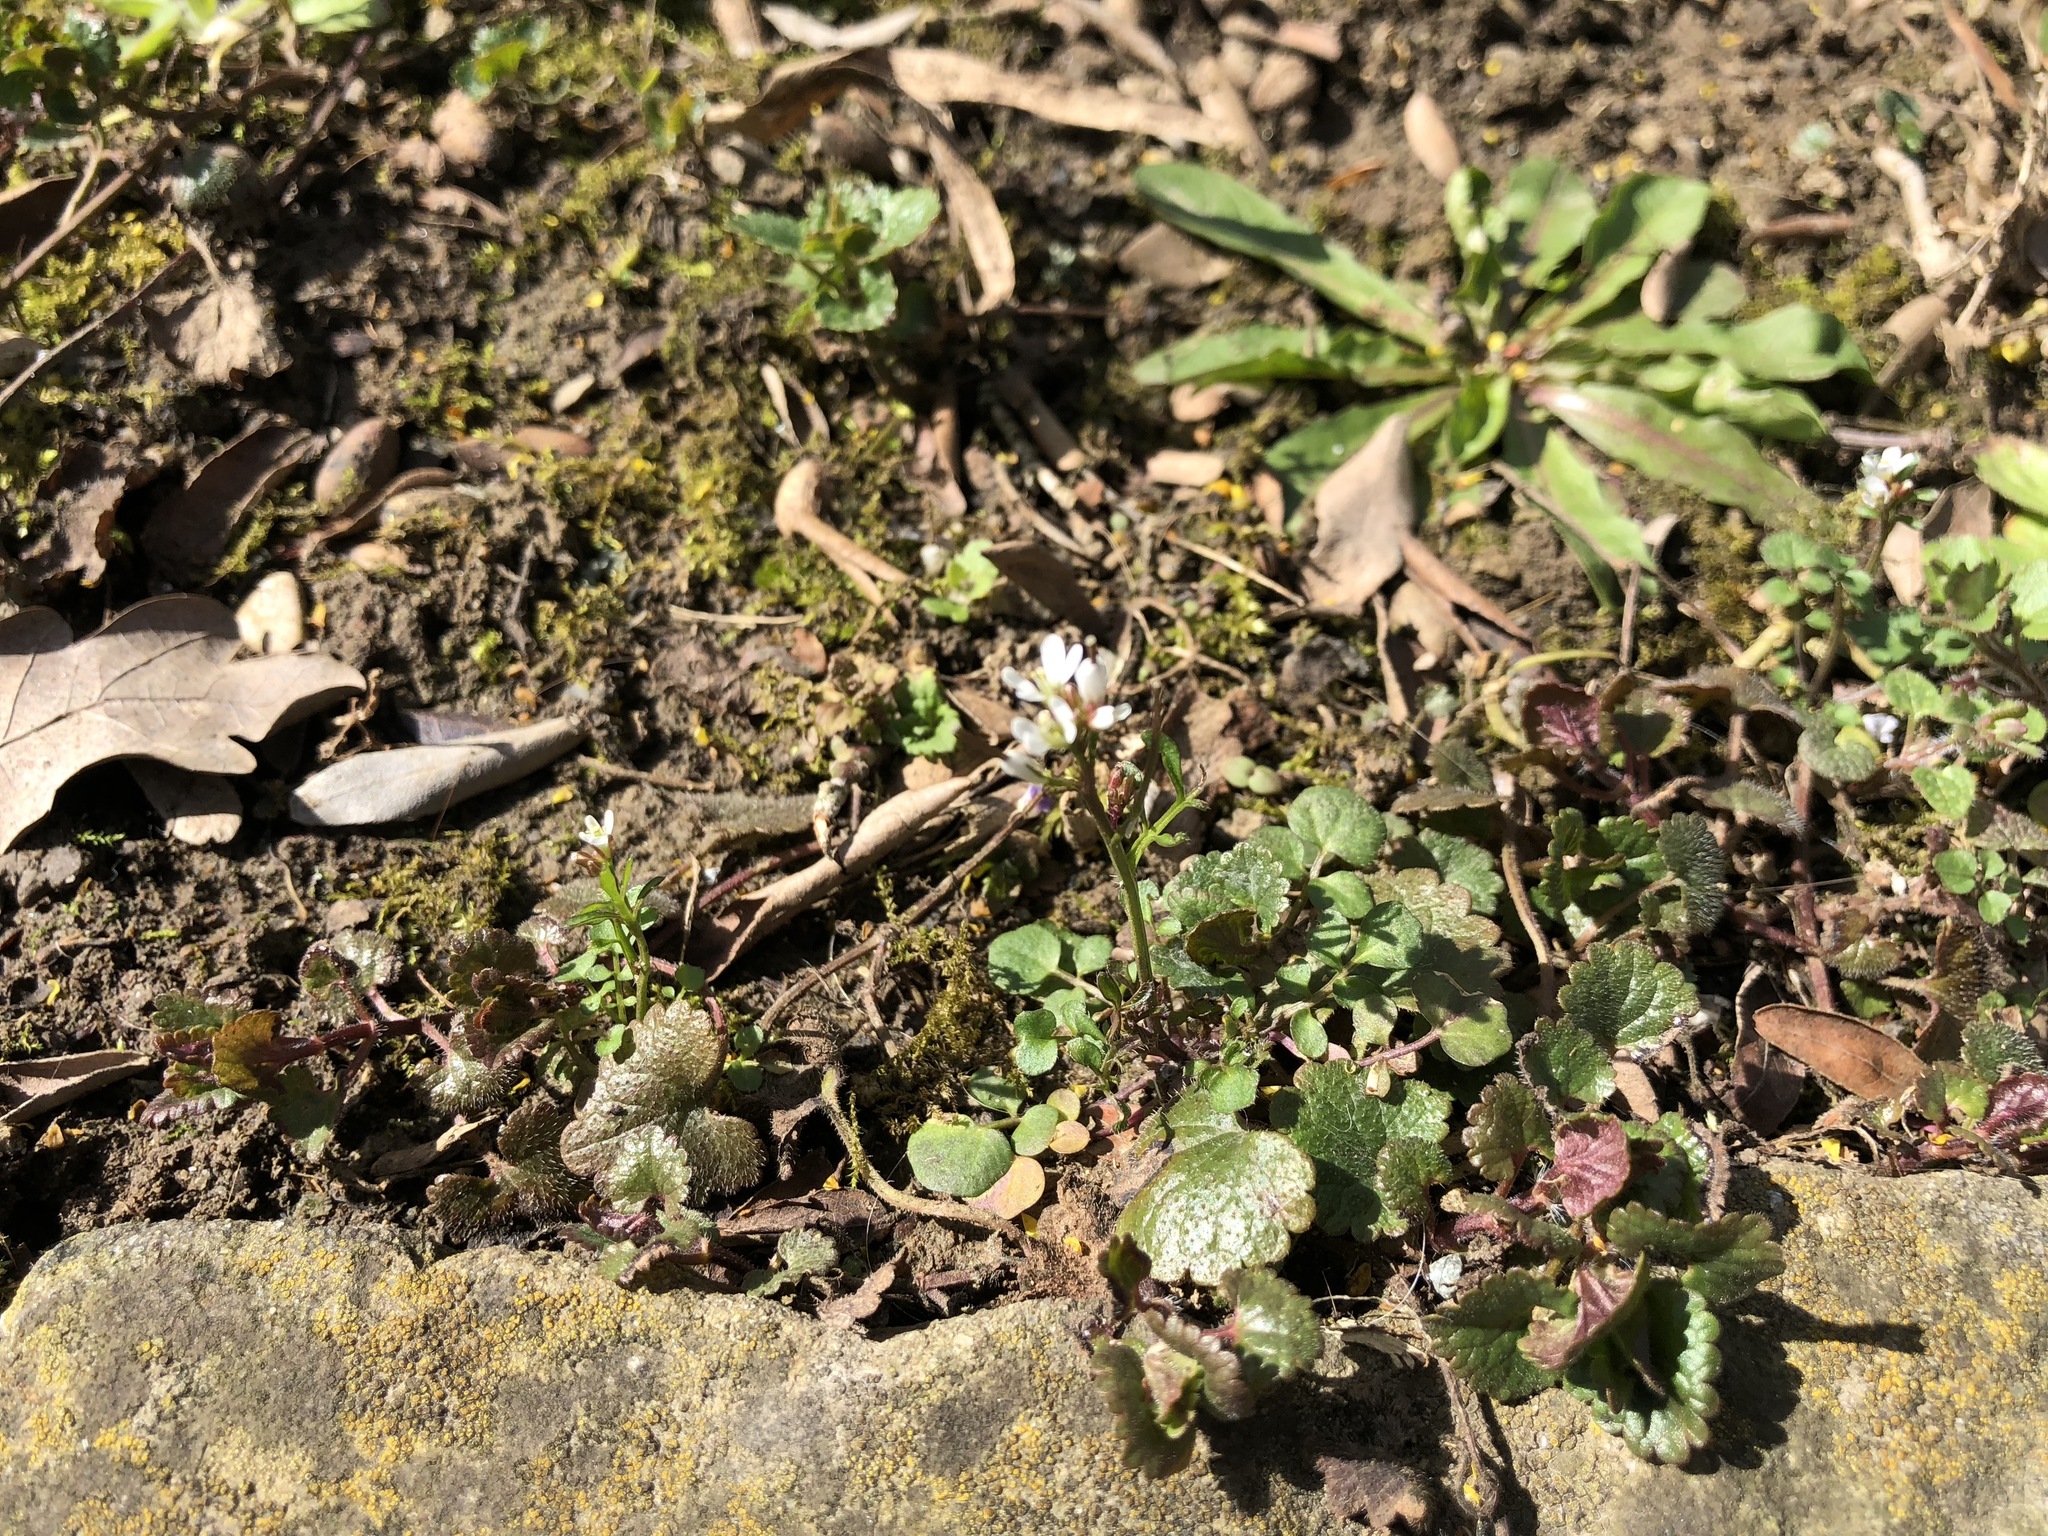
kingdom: Plantae
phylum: Tracheophyta
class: Magnoliopsida
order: Brassicales
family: Brassicaceae
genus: Cardamine
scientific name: Cardamine hirsuta
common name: Hairy bittercress
